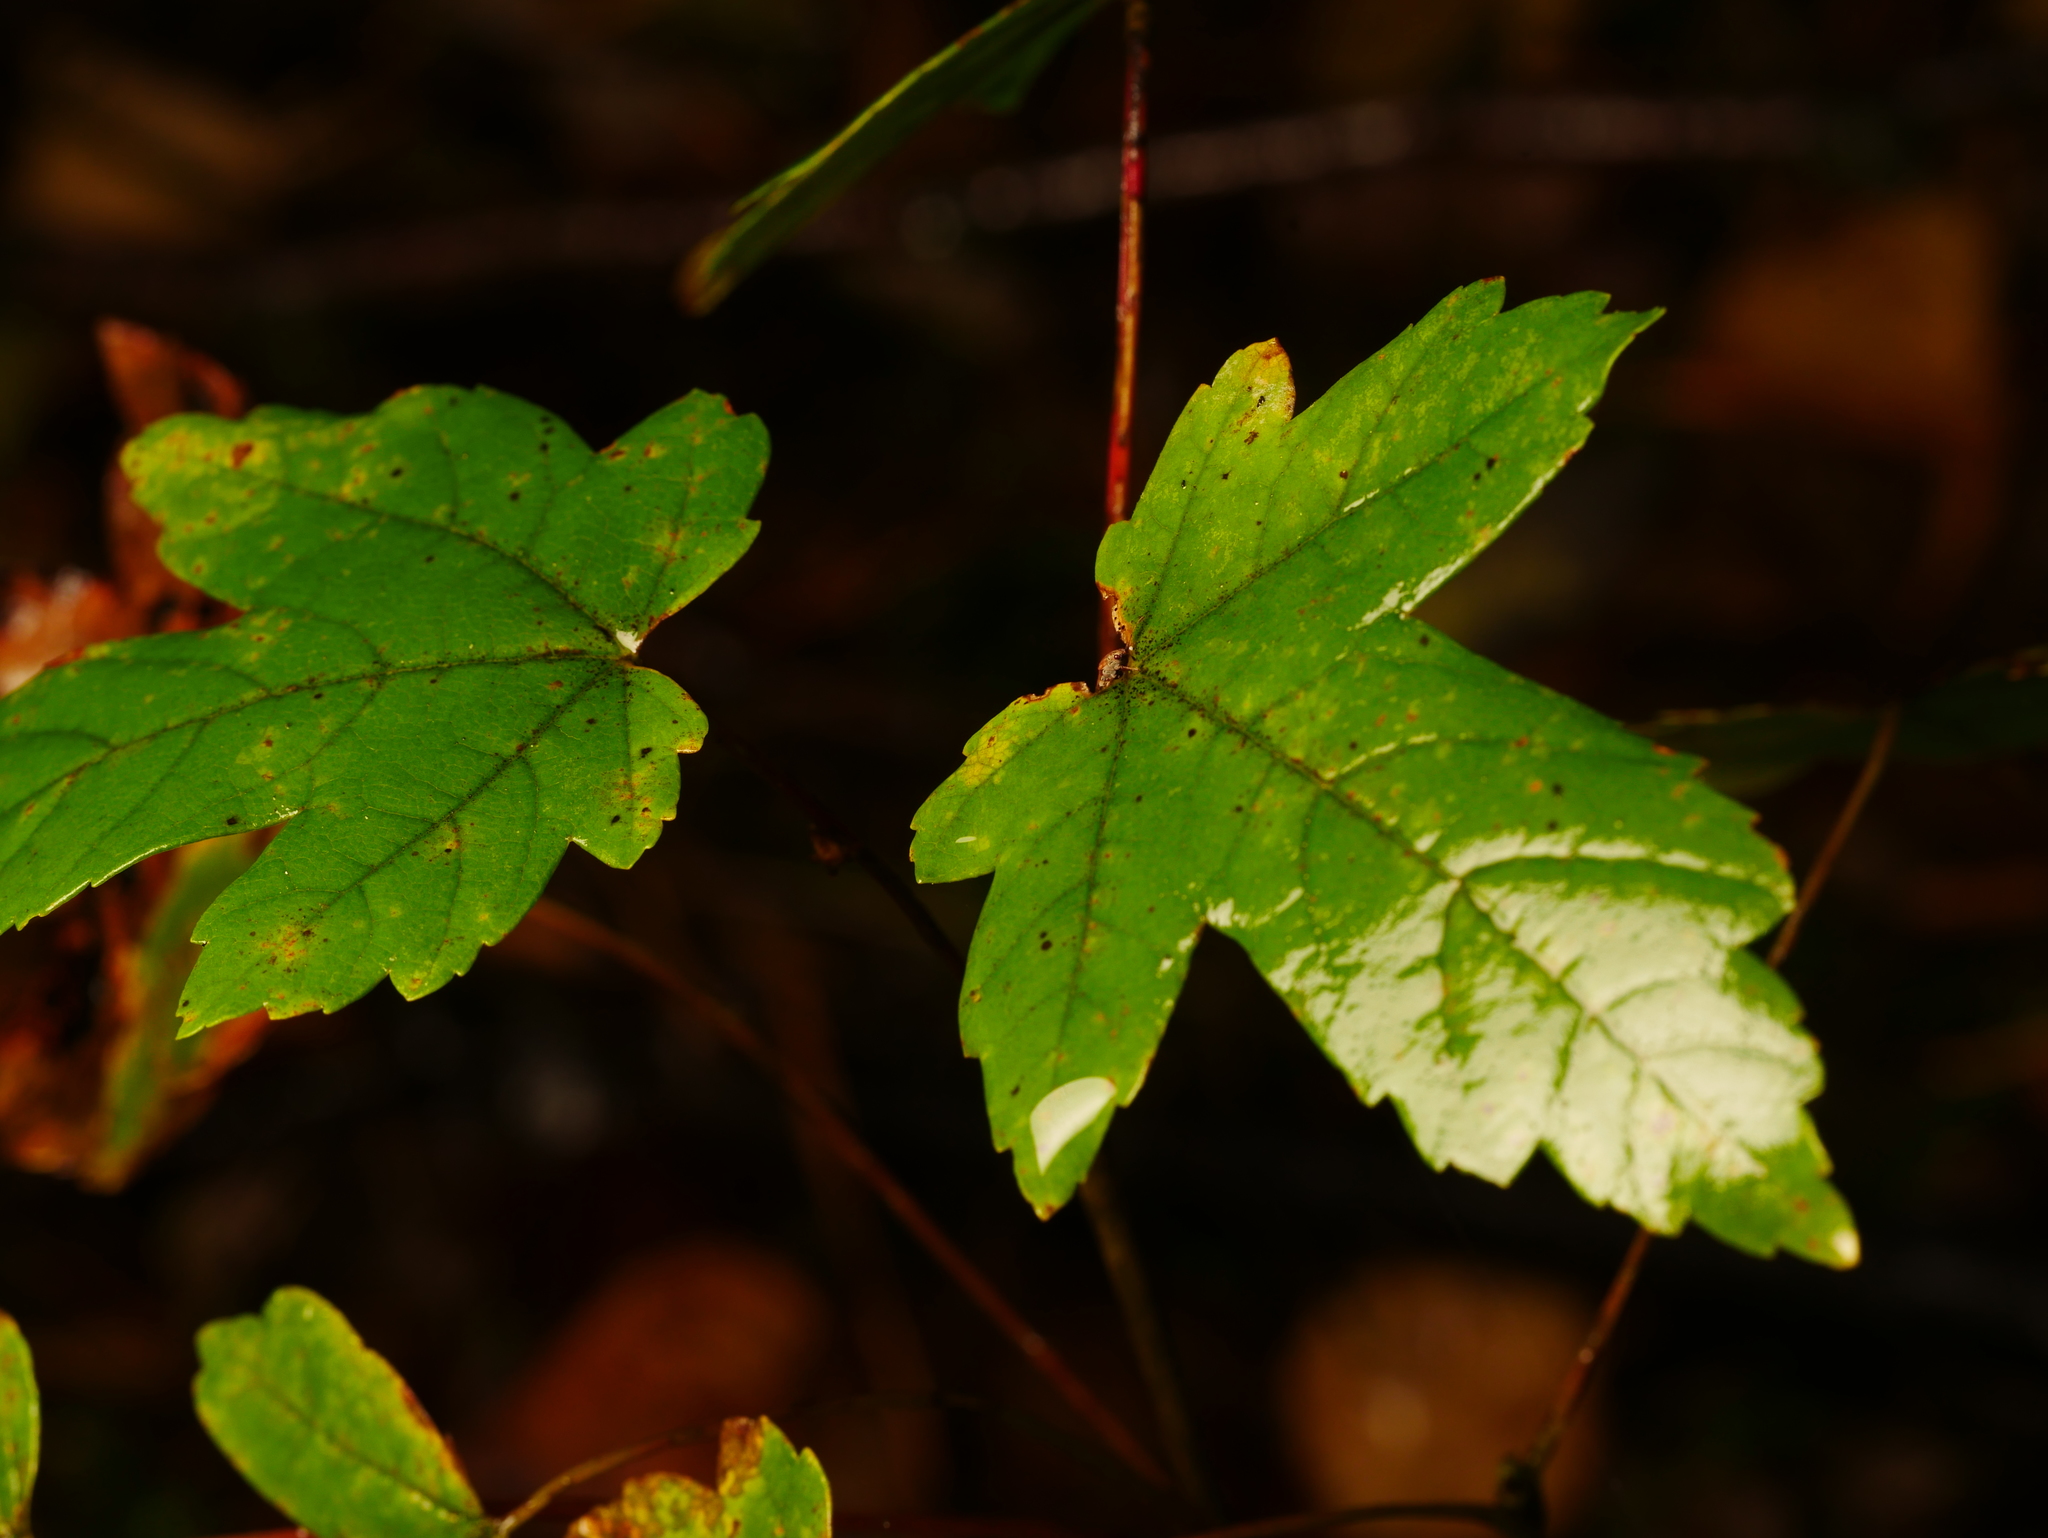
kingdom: Plantae
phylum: Tracheophyta
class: Magnoliopsida
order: Sapindales
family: Sapindaceae
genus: Acer
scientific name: Acer pseudoplatanus
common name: Sycamore
